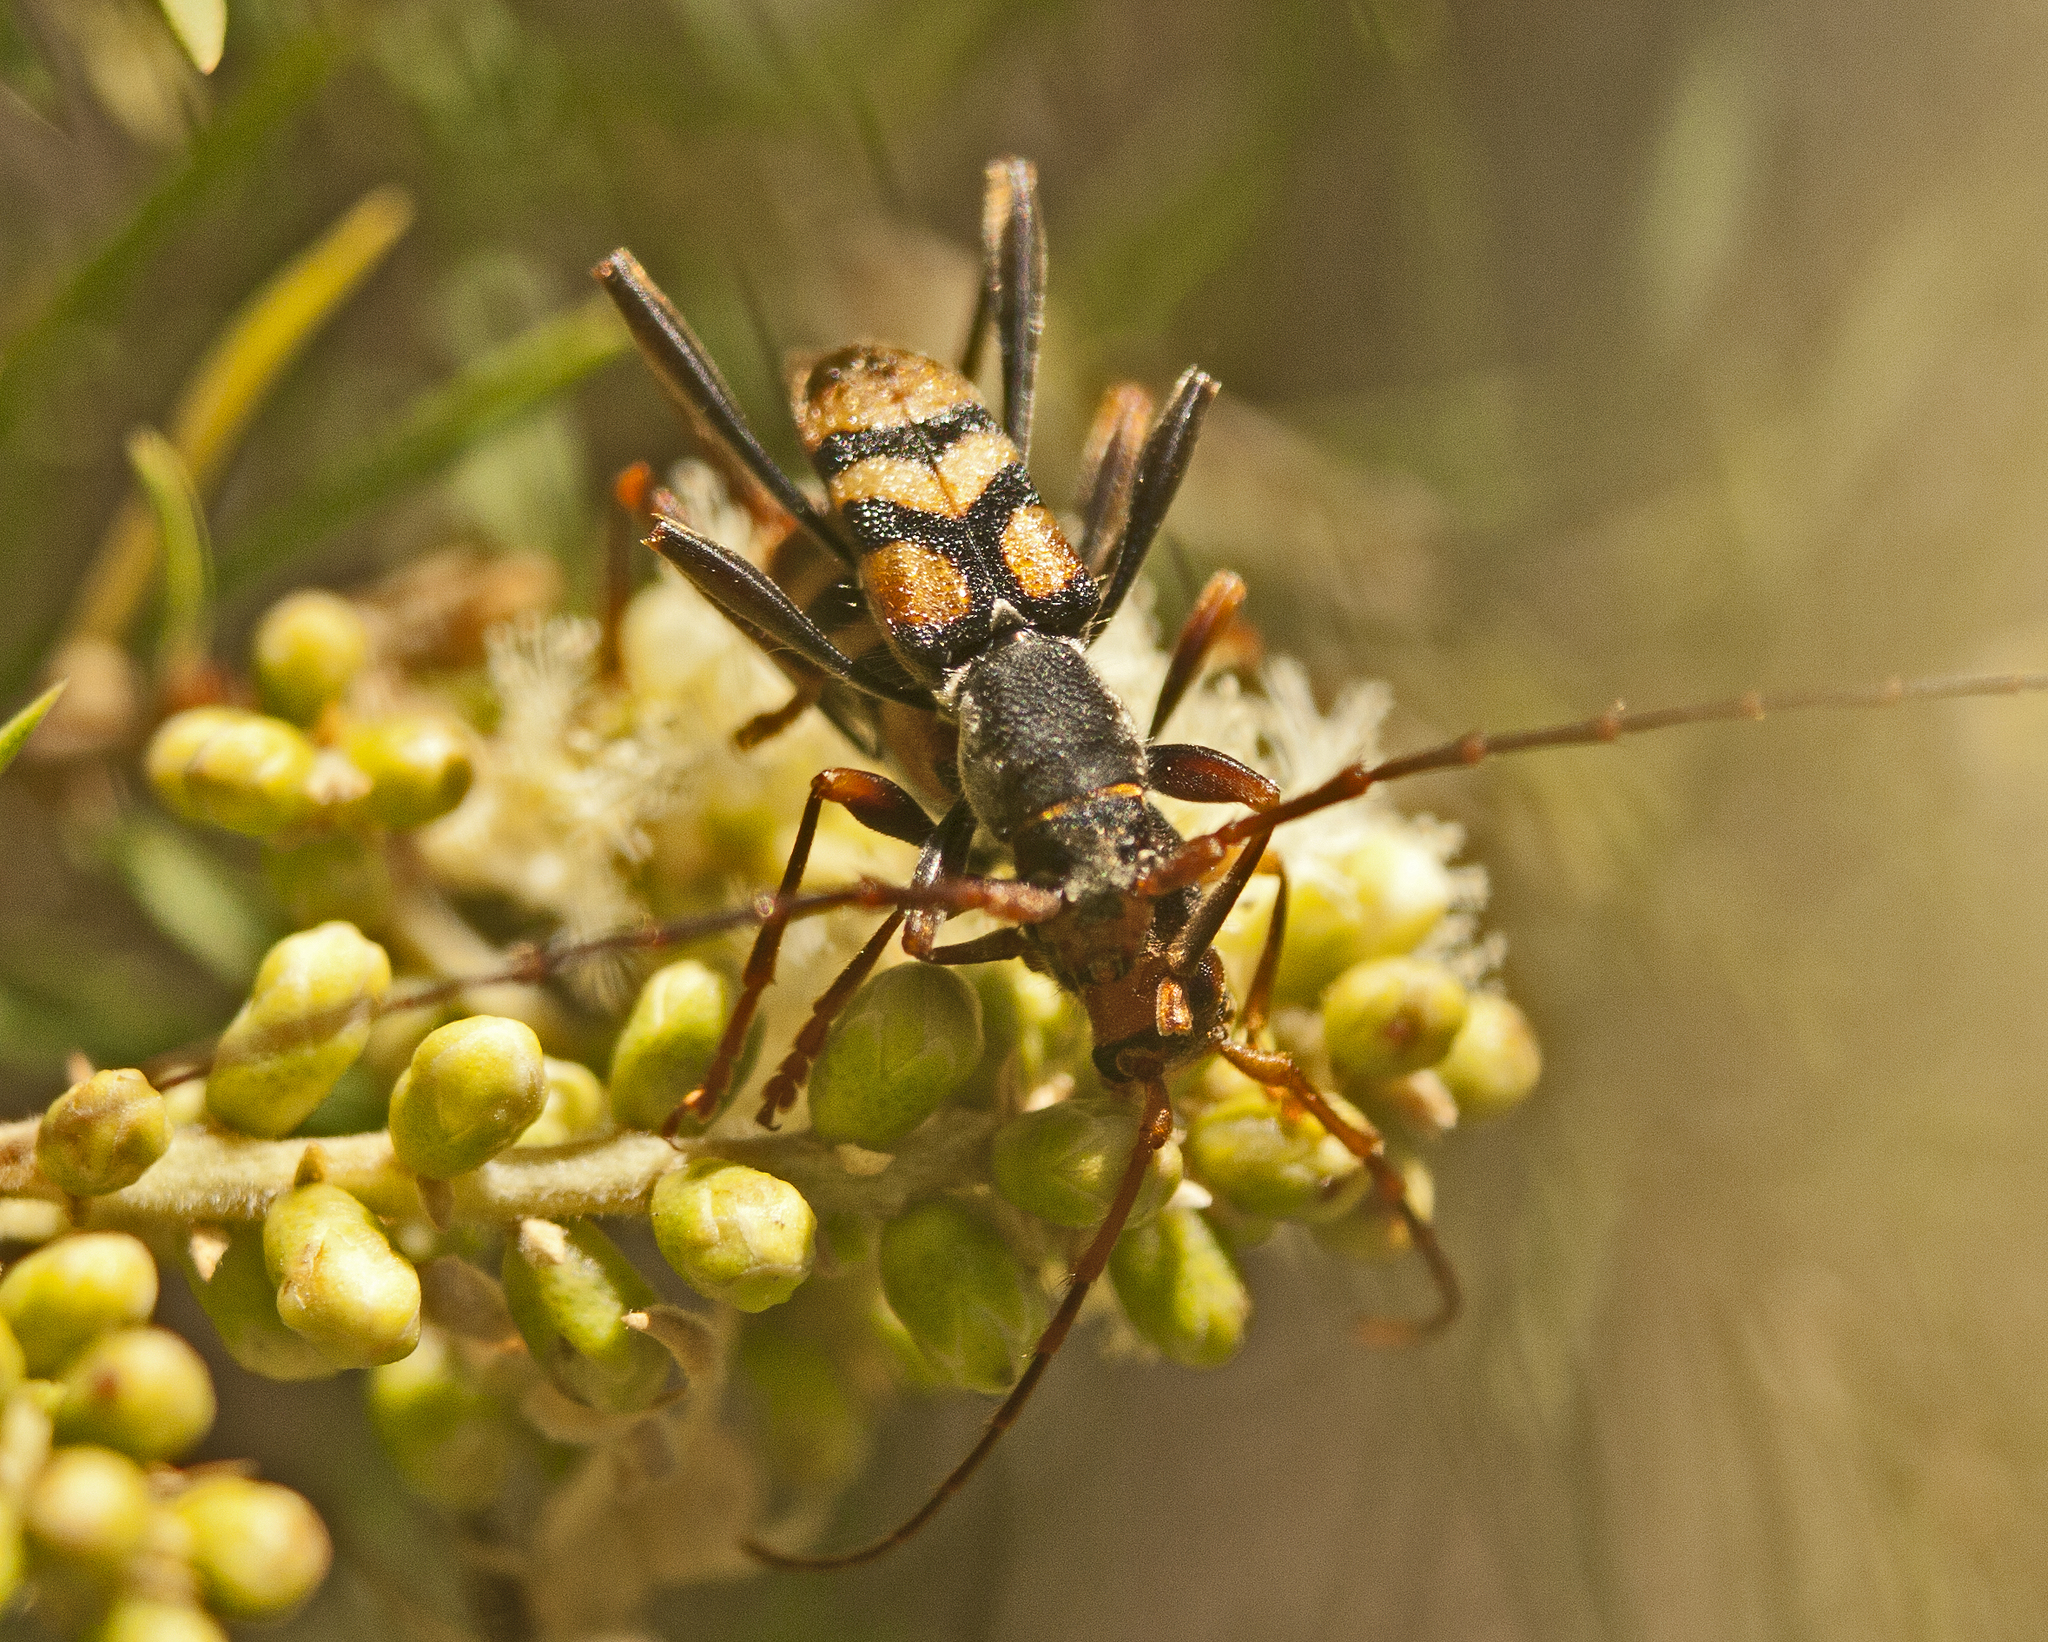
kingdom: Animalia
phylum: Arthropoda
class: Insecta
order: Coleoptera
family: Cerambycidae
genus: Aridaeus
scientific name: Aridaeus thoracicus
